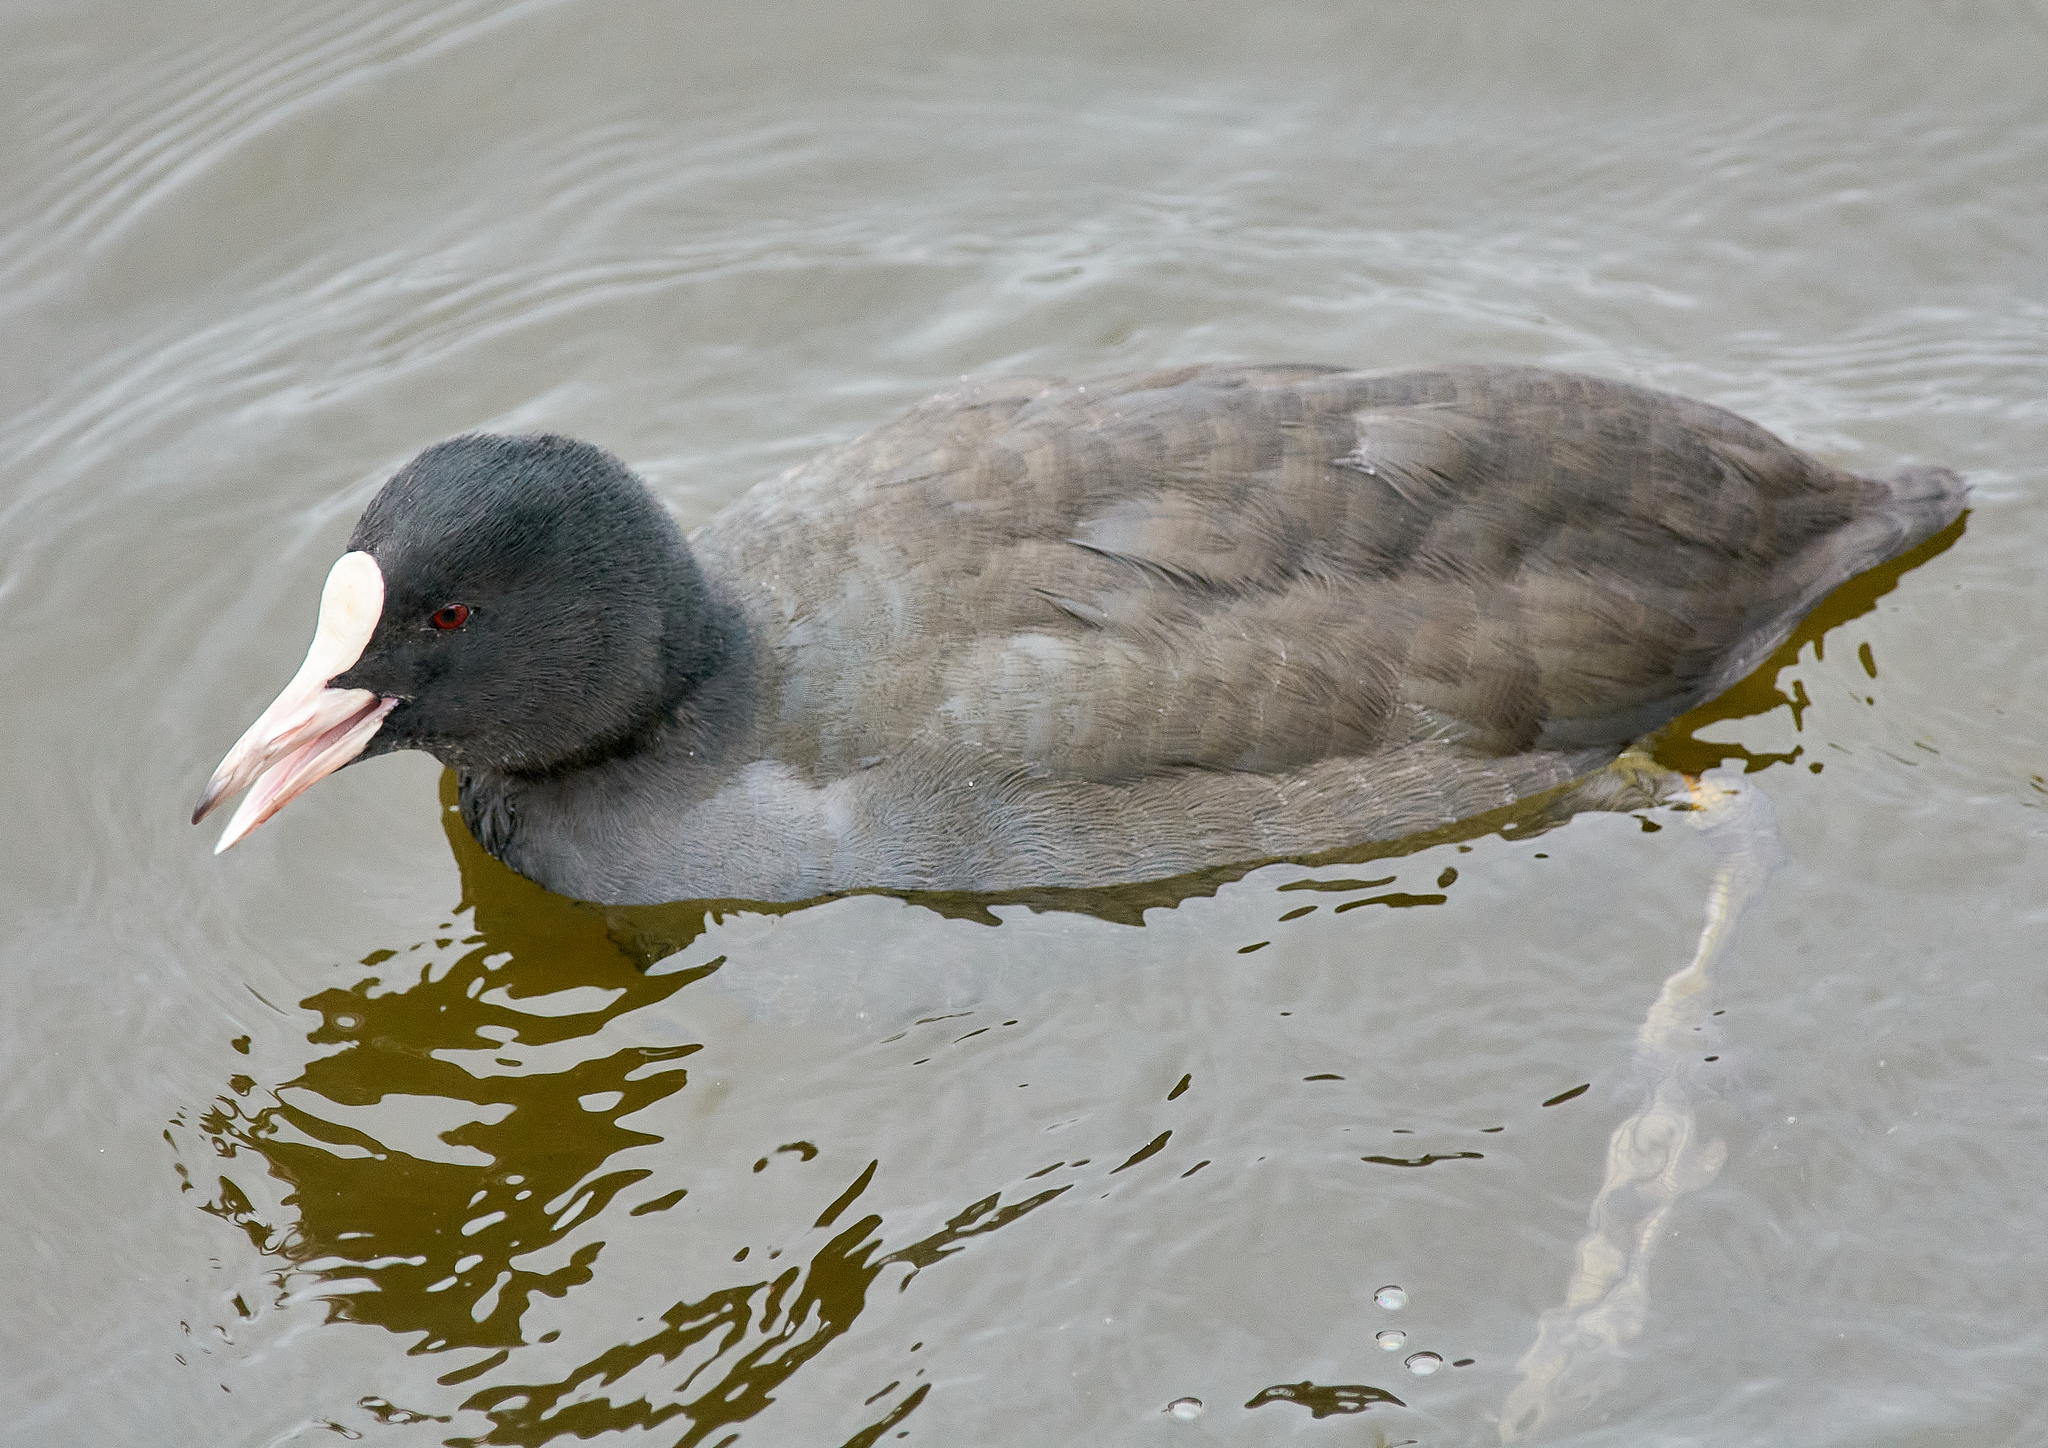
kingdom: Animalia
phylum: Chordata
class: Aves
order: Gruiformes
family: Rallidae
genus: Fulica
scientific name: Fulica atra
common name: Eurasian coot
